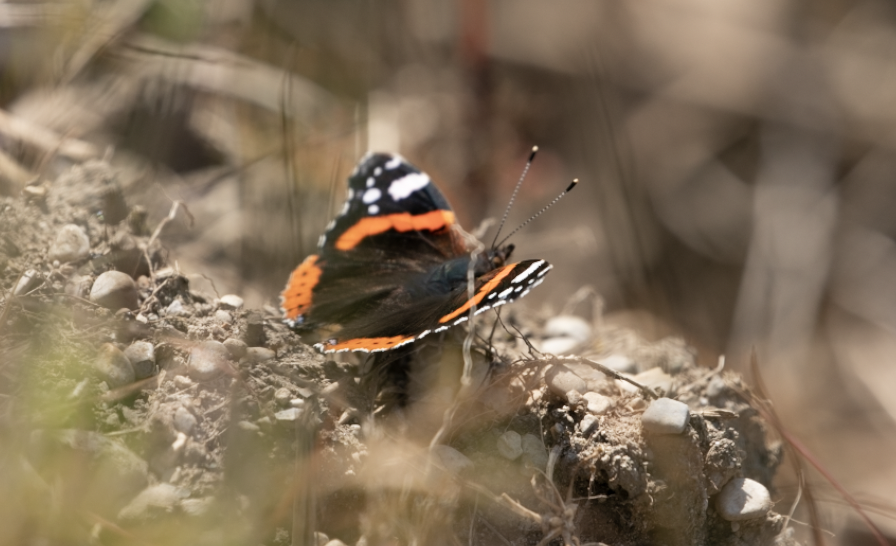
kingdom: Animalia
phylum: Arthropoda
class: Insecta
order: Lepidoptera
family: Nymphalidae
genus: Vanessa
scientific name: Vanessa atalanta
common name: Red admiral
